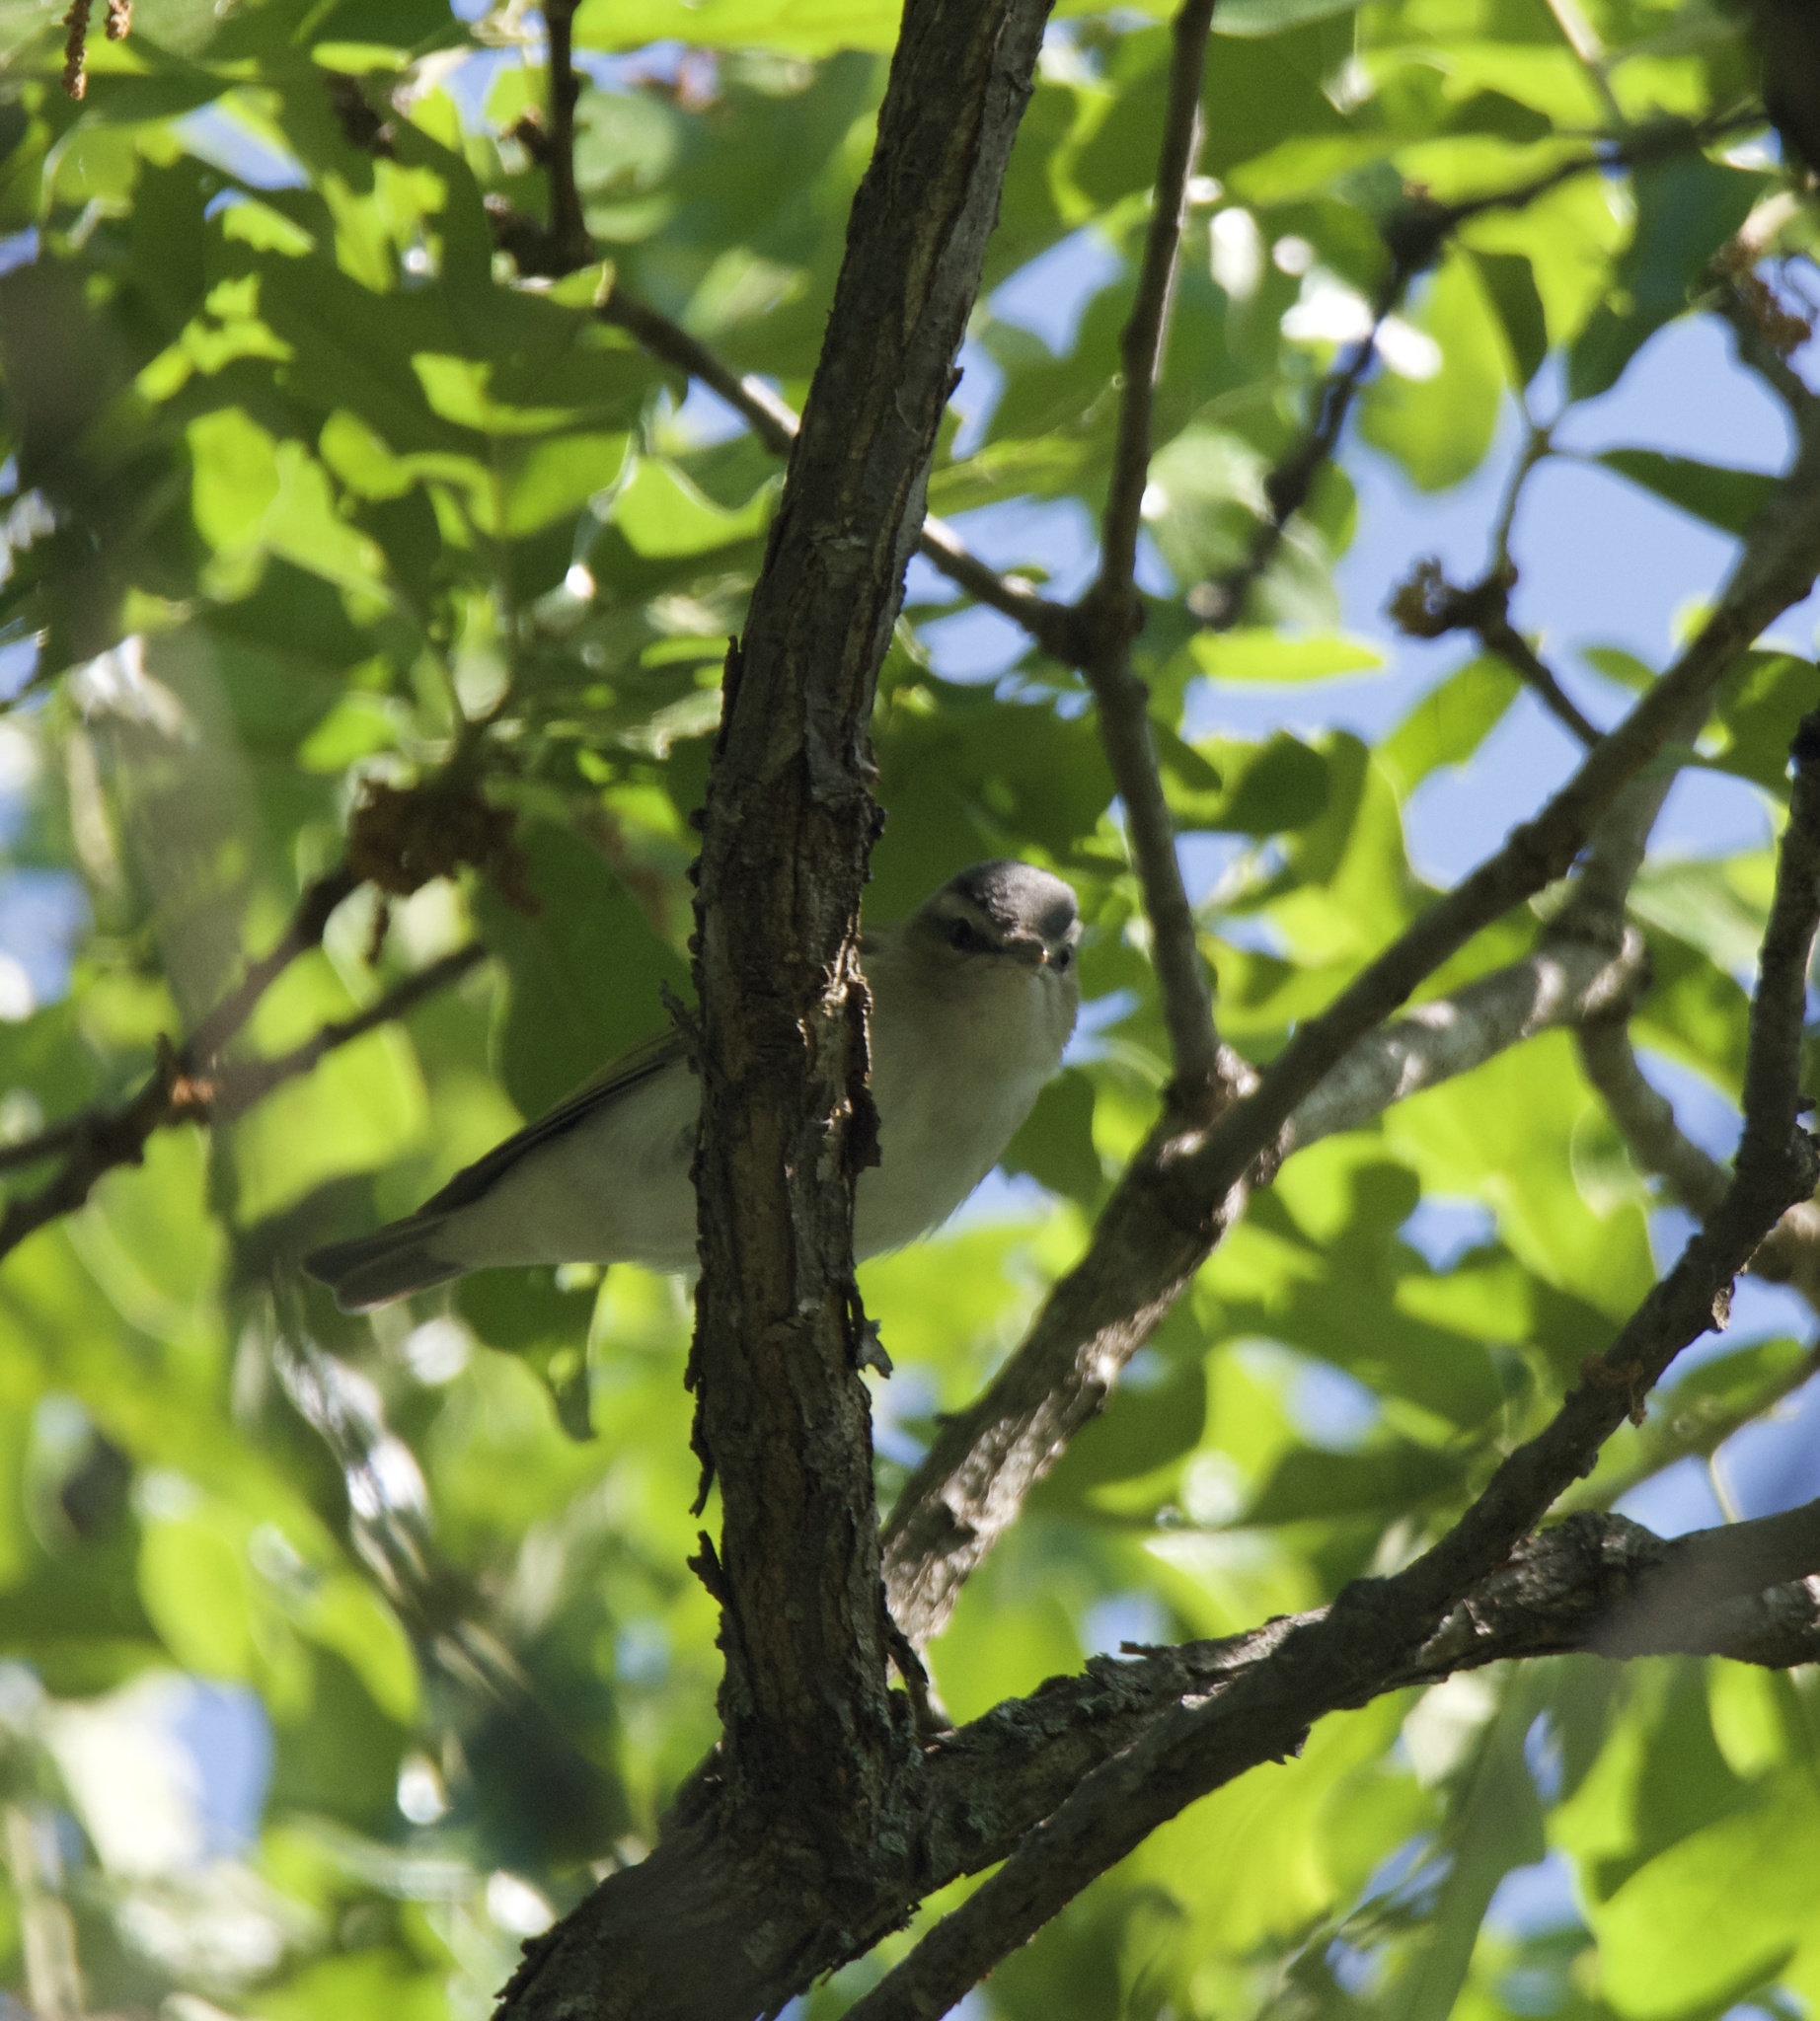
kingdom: Animalia
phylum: Chordata
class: Aves
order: Passeriformes
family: Vireonidae
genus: Vireo
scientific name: Vireo olivaceus
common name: Red-eyed vireo
